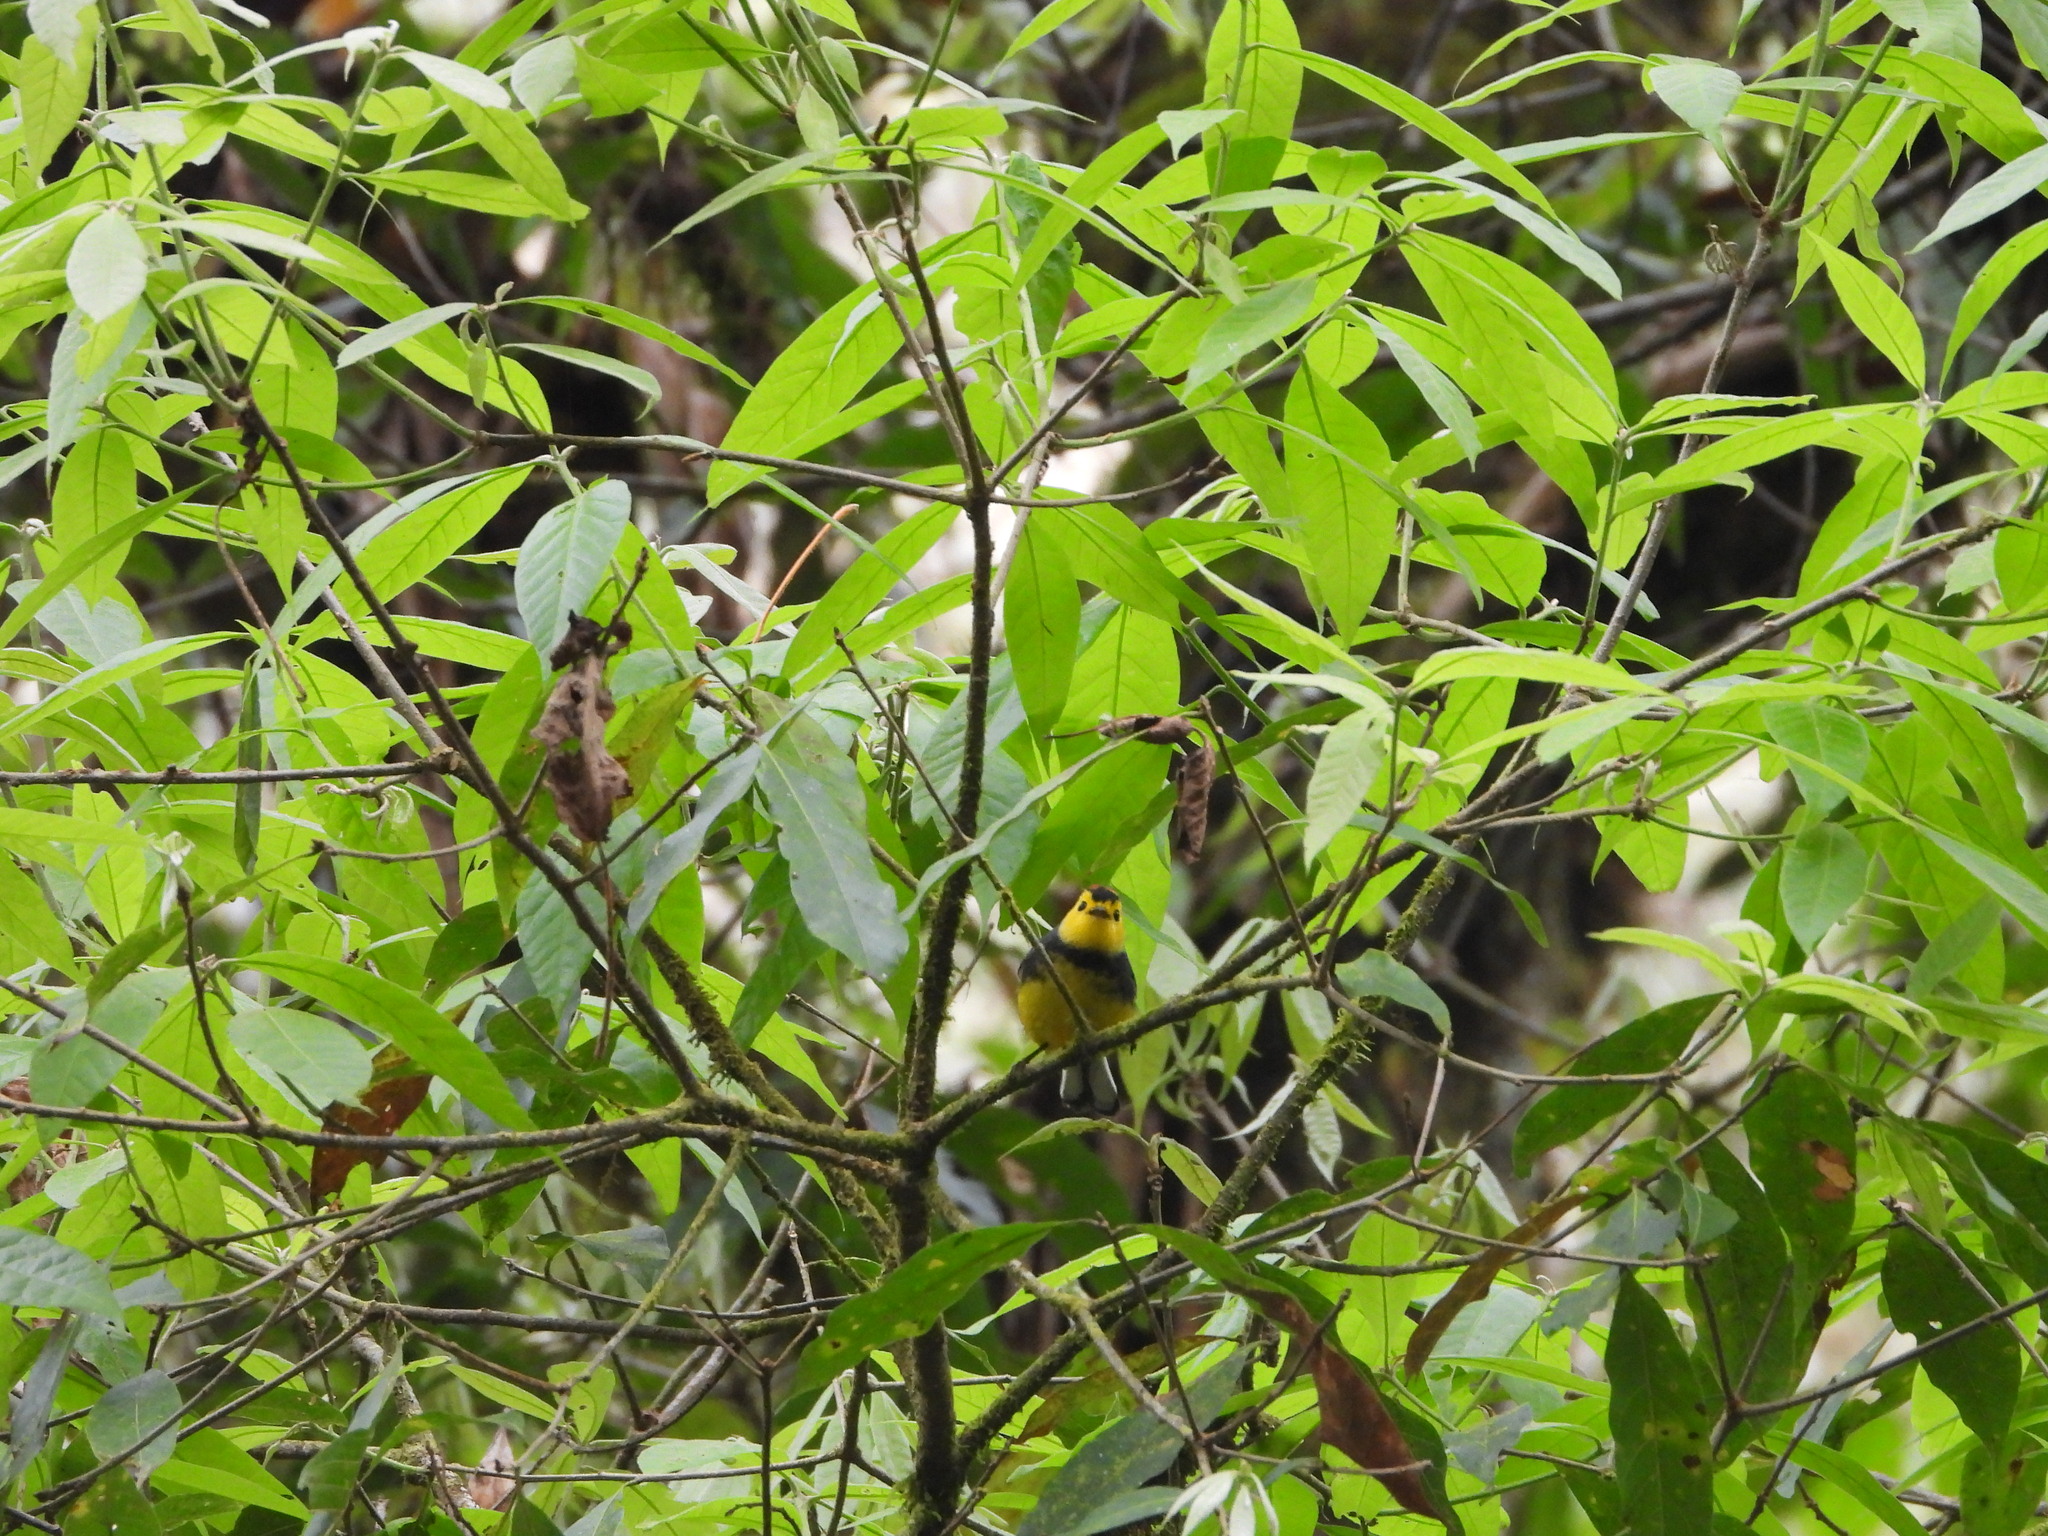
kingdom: Animalia
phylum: Chordata
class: Aves
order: Passeriformes
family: Parulidae
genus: Myioborus
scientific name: Myioborus torquatus
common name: Collared whitestart
